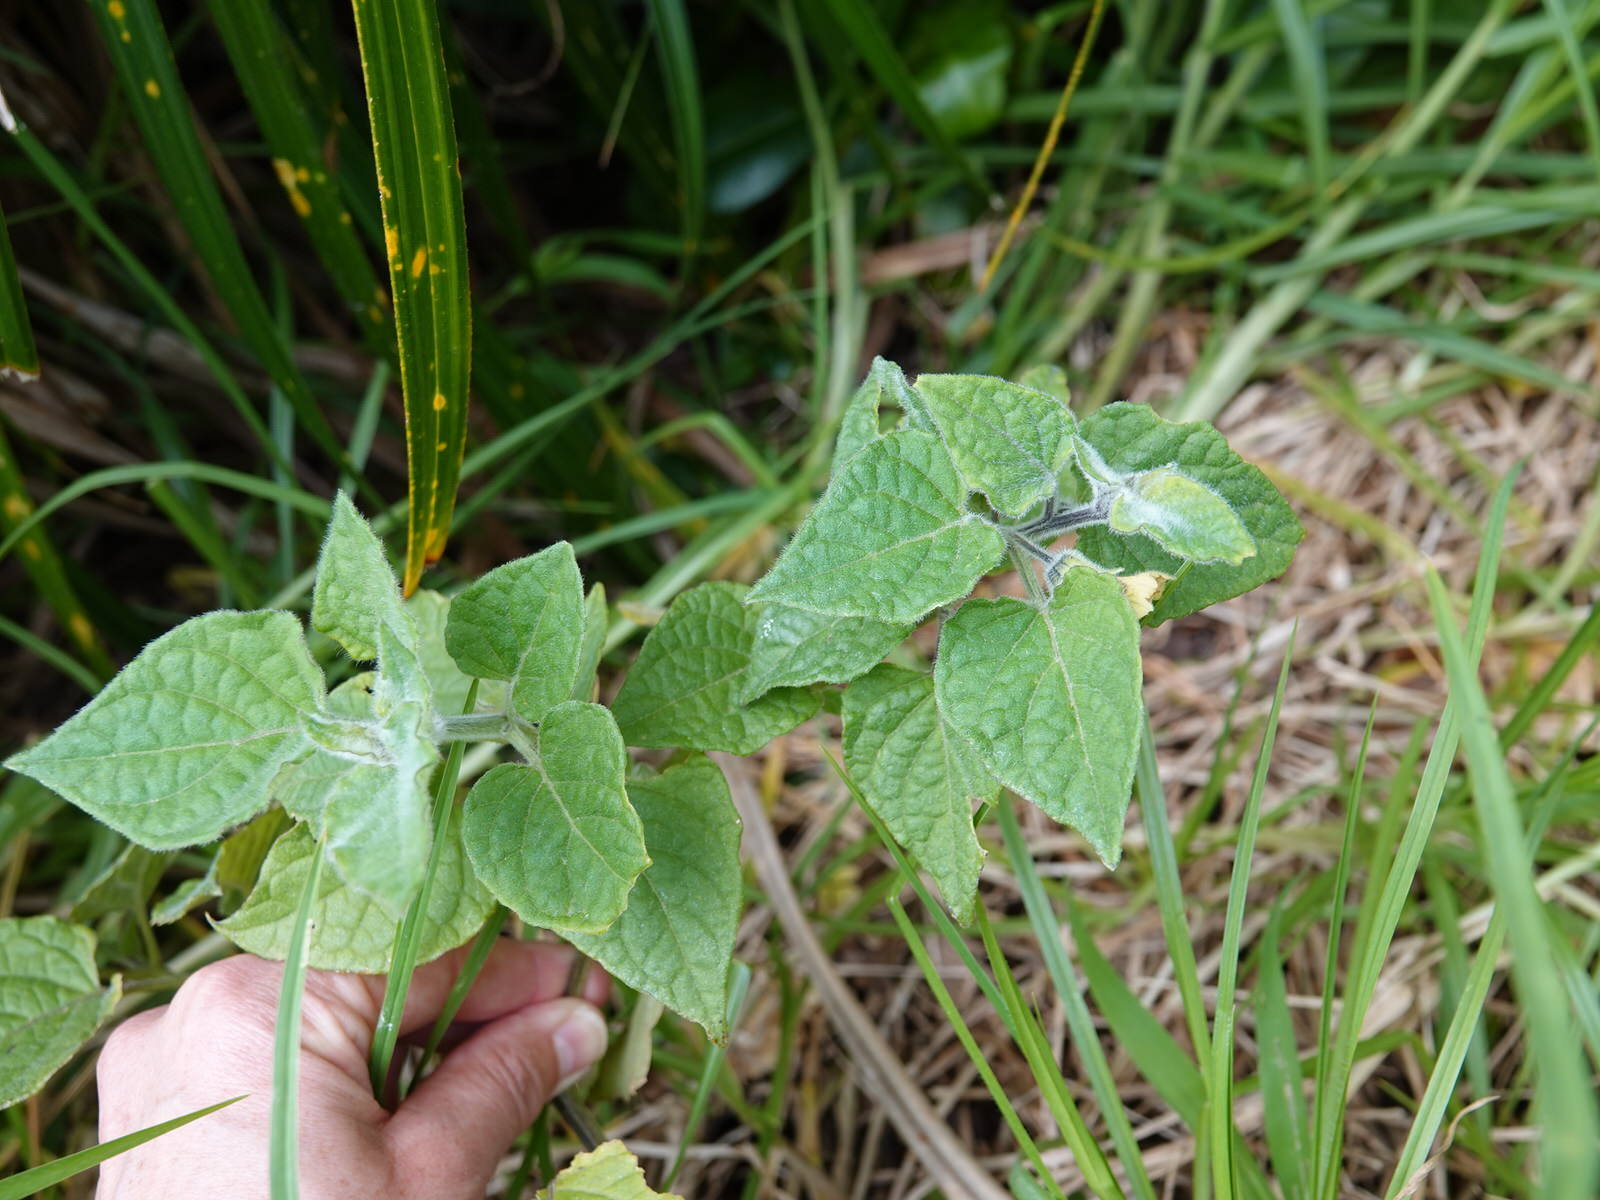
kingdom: Plantae
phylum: Tracheophyta
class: Magnoliopsida
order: Solanales
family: Solanaceae
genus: Physalis
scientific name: Physalis peruviana
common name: Cape-gooseberry
